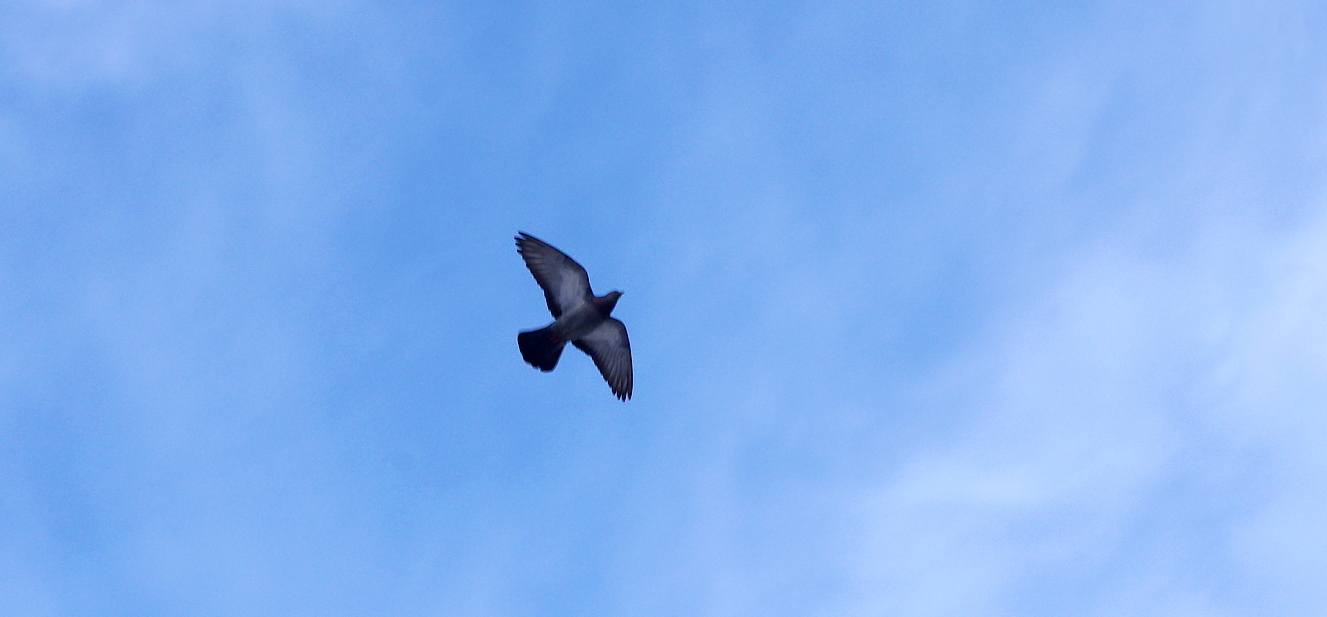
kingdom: Animalia
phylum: Chordata
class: Aves
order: Columbiformes
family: Columbidae
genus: Columba
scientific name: Columba livia
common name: Rock pigeon
